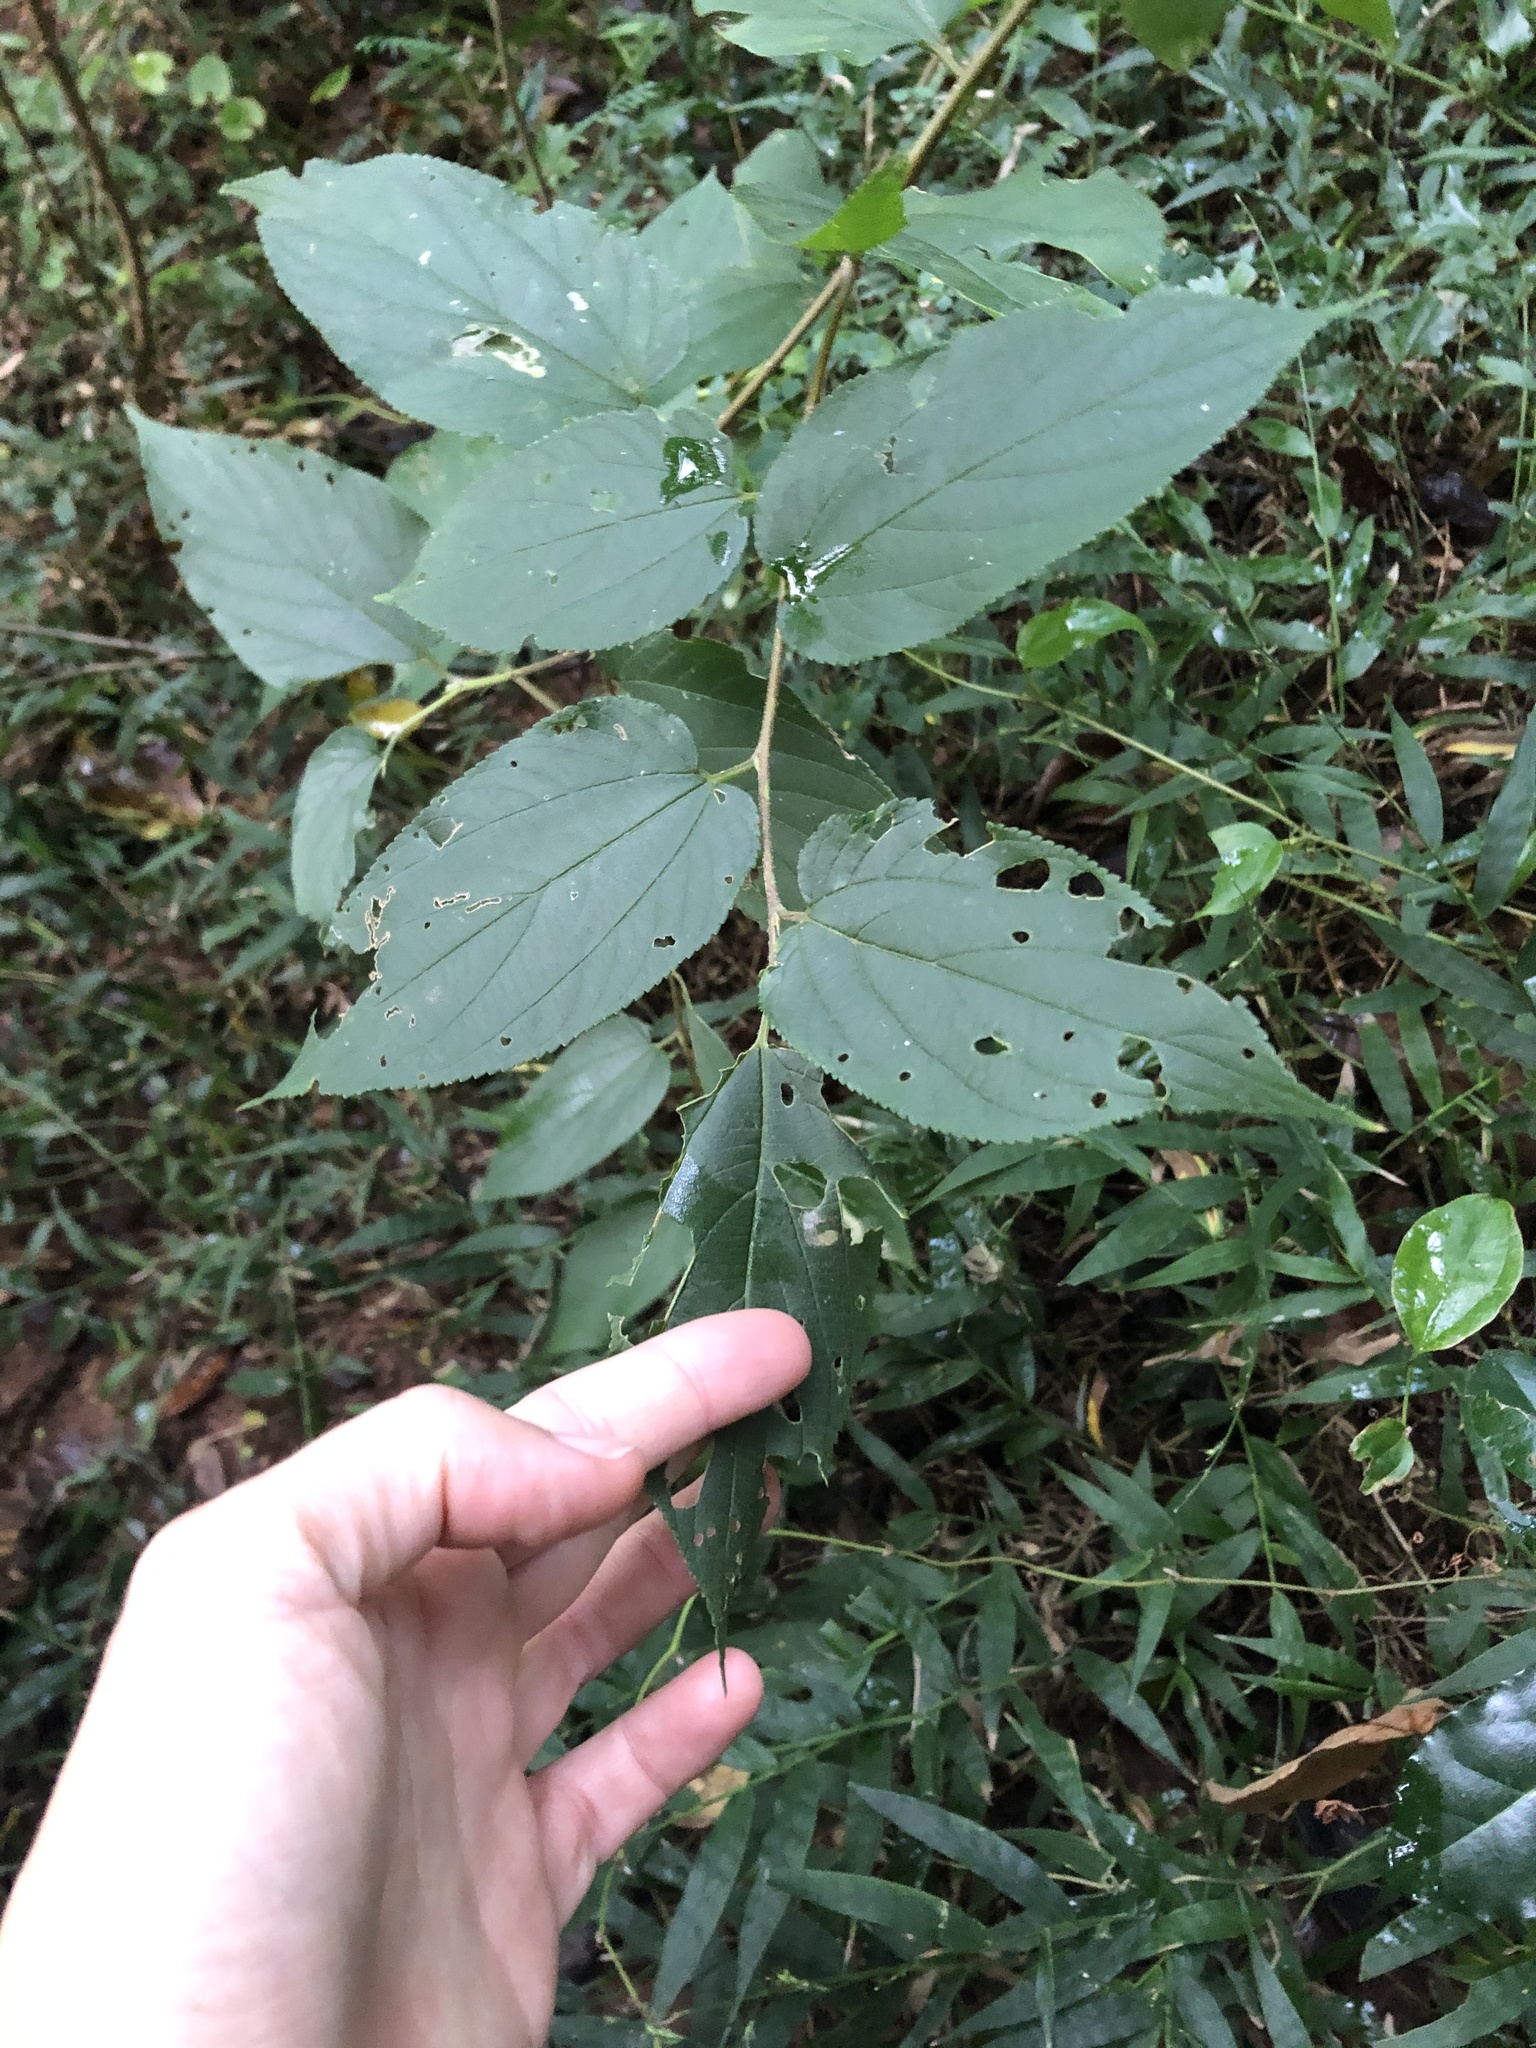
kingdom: Plantae
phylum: Tracheophyta
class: Magnoliopsida
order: Rosales
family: Cannabaceae
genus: Trema
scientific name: Trema orientale
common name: Indian charcoal tree
